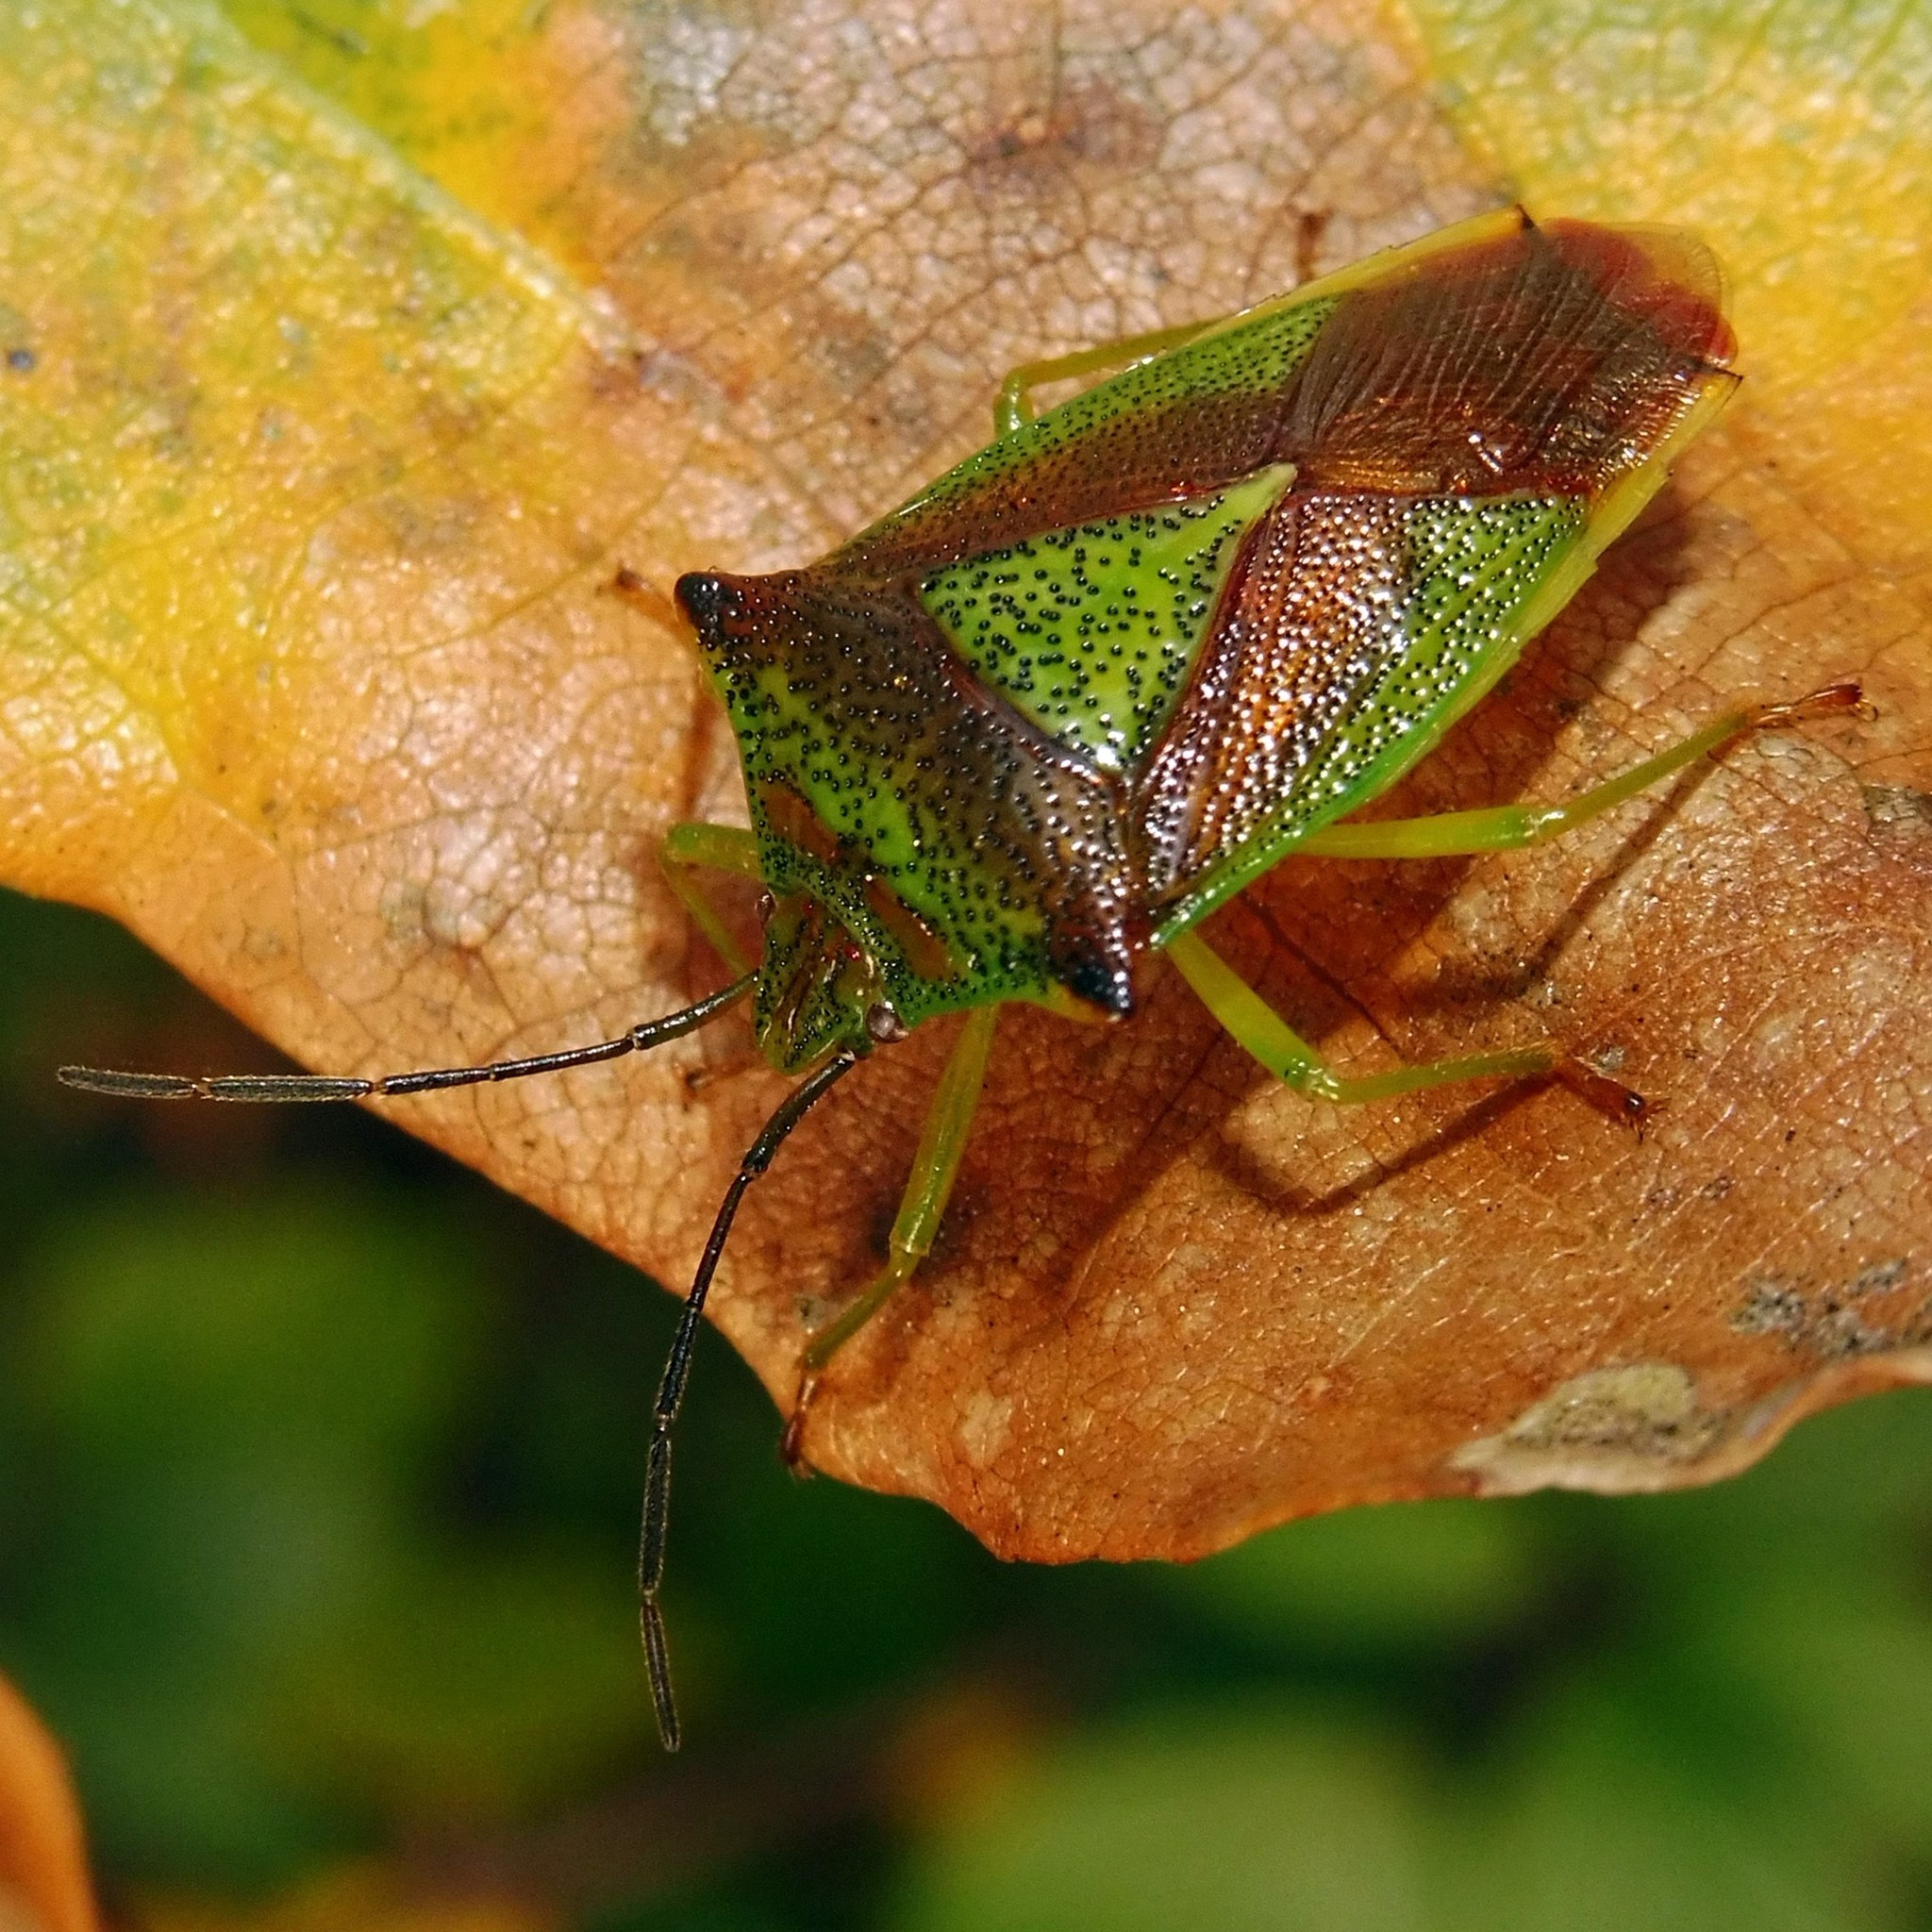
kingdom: Animalia
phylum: Arthropoda
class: Insecta
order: Hemiptera
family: Acanthosomatidae
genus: Acanthosoma
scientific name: Acanthosoma haemorrhoidale
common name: Hawthorn shieldbug
